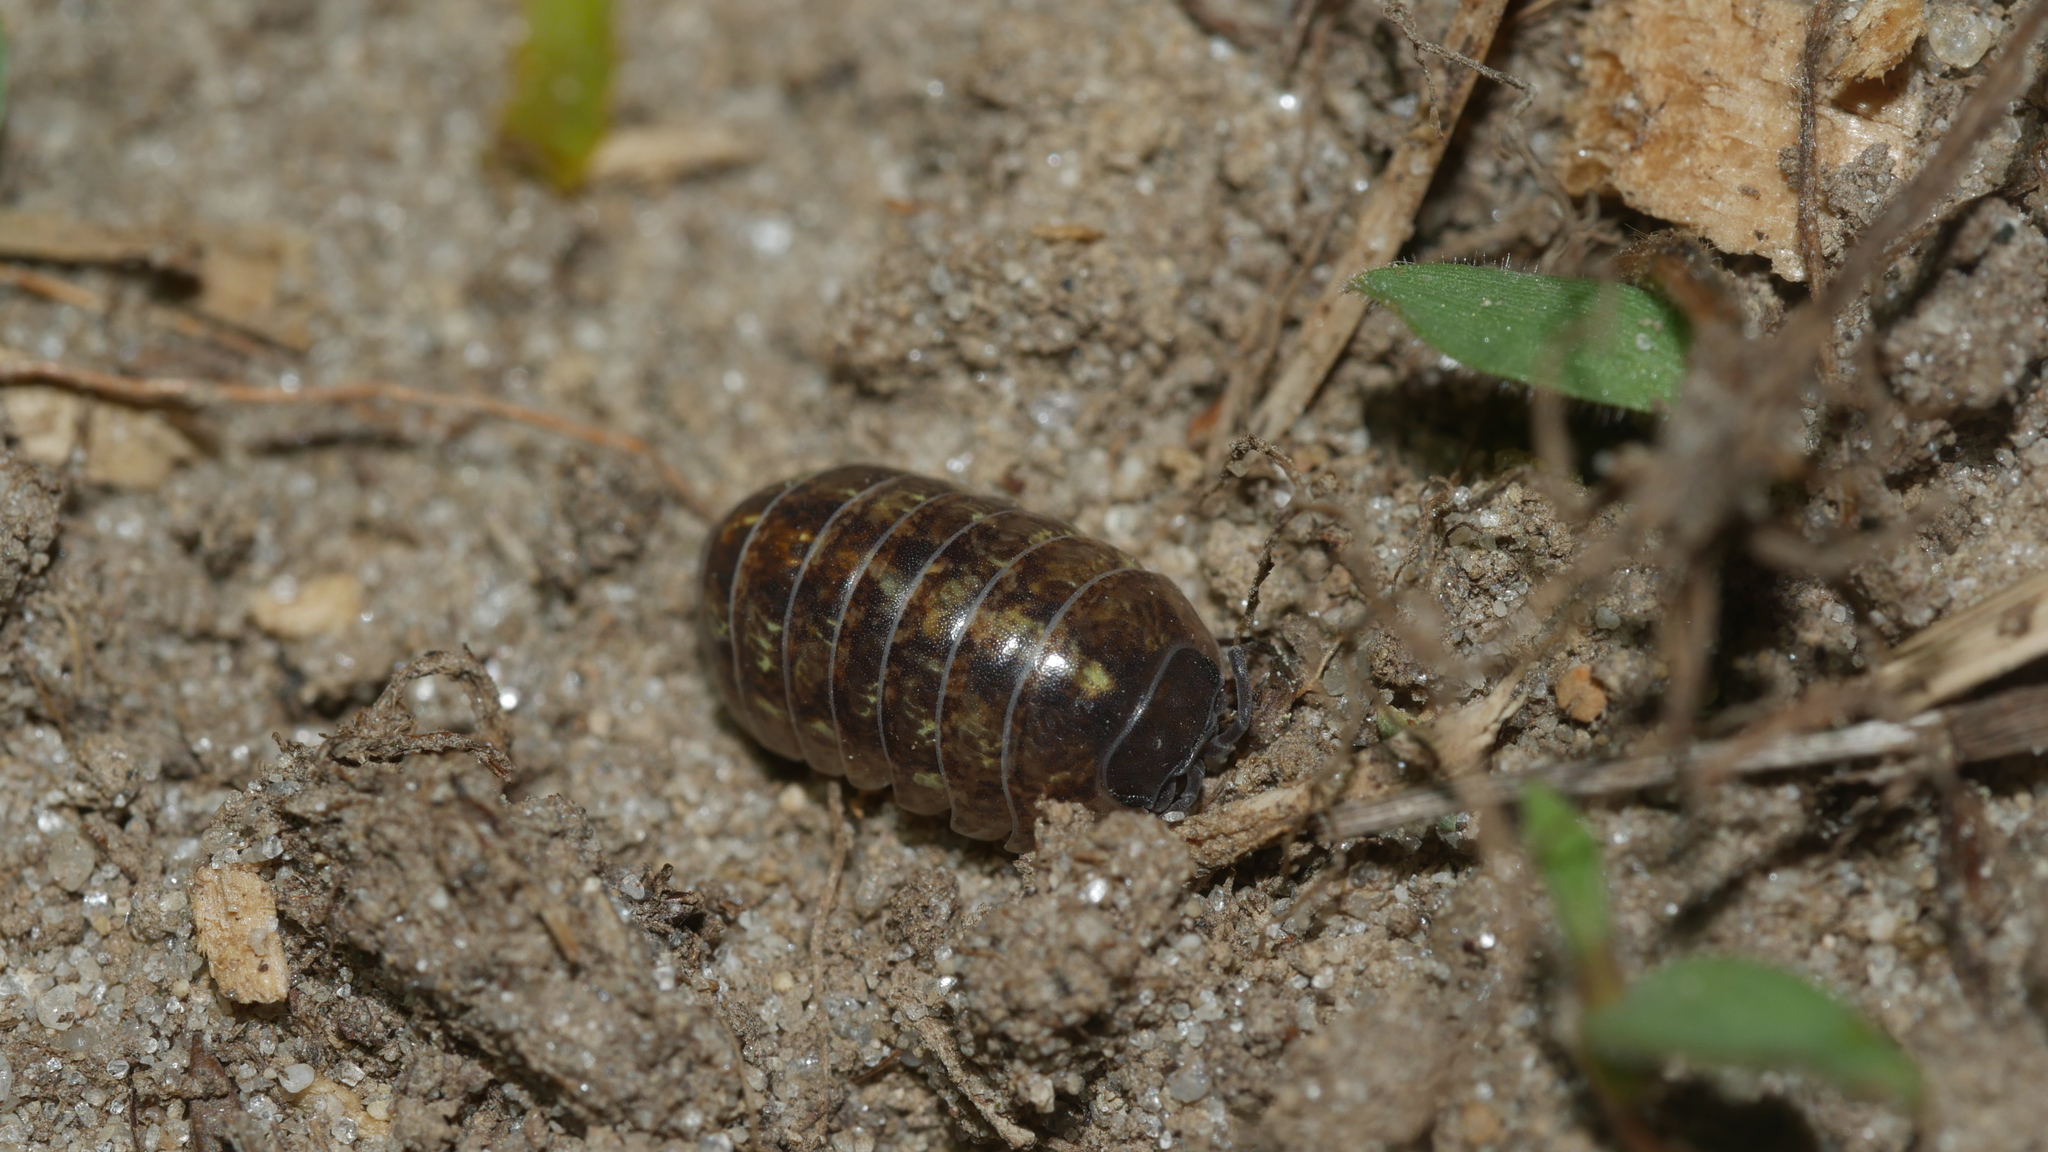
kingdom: Animalia
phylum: Arthropoda
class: Malacostraca
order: Isopoda
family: Armadillidiidae
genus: Armadillidium
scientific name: Armadillidium vulgare
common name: Common pill woodlouse
